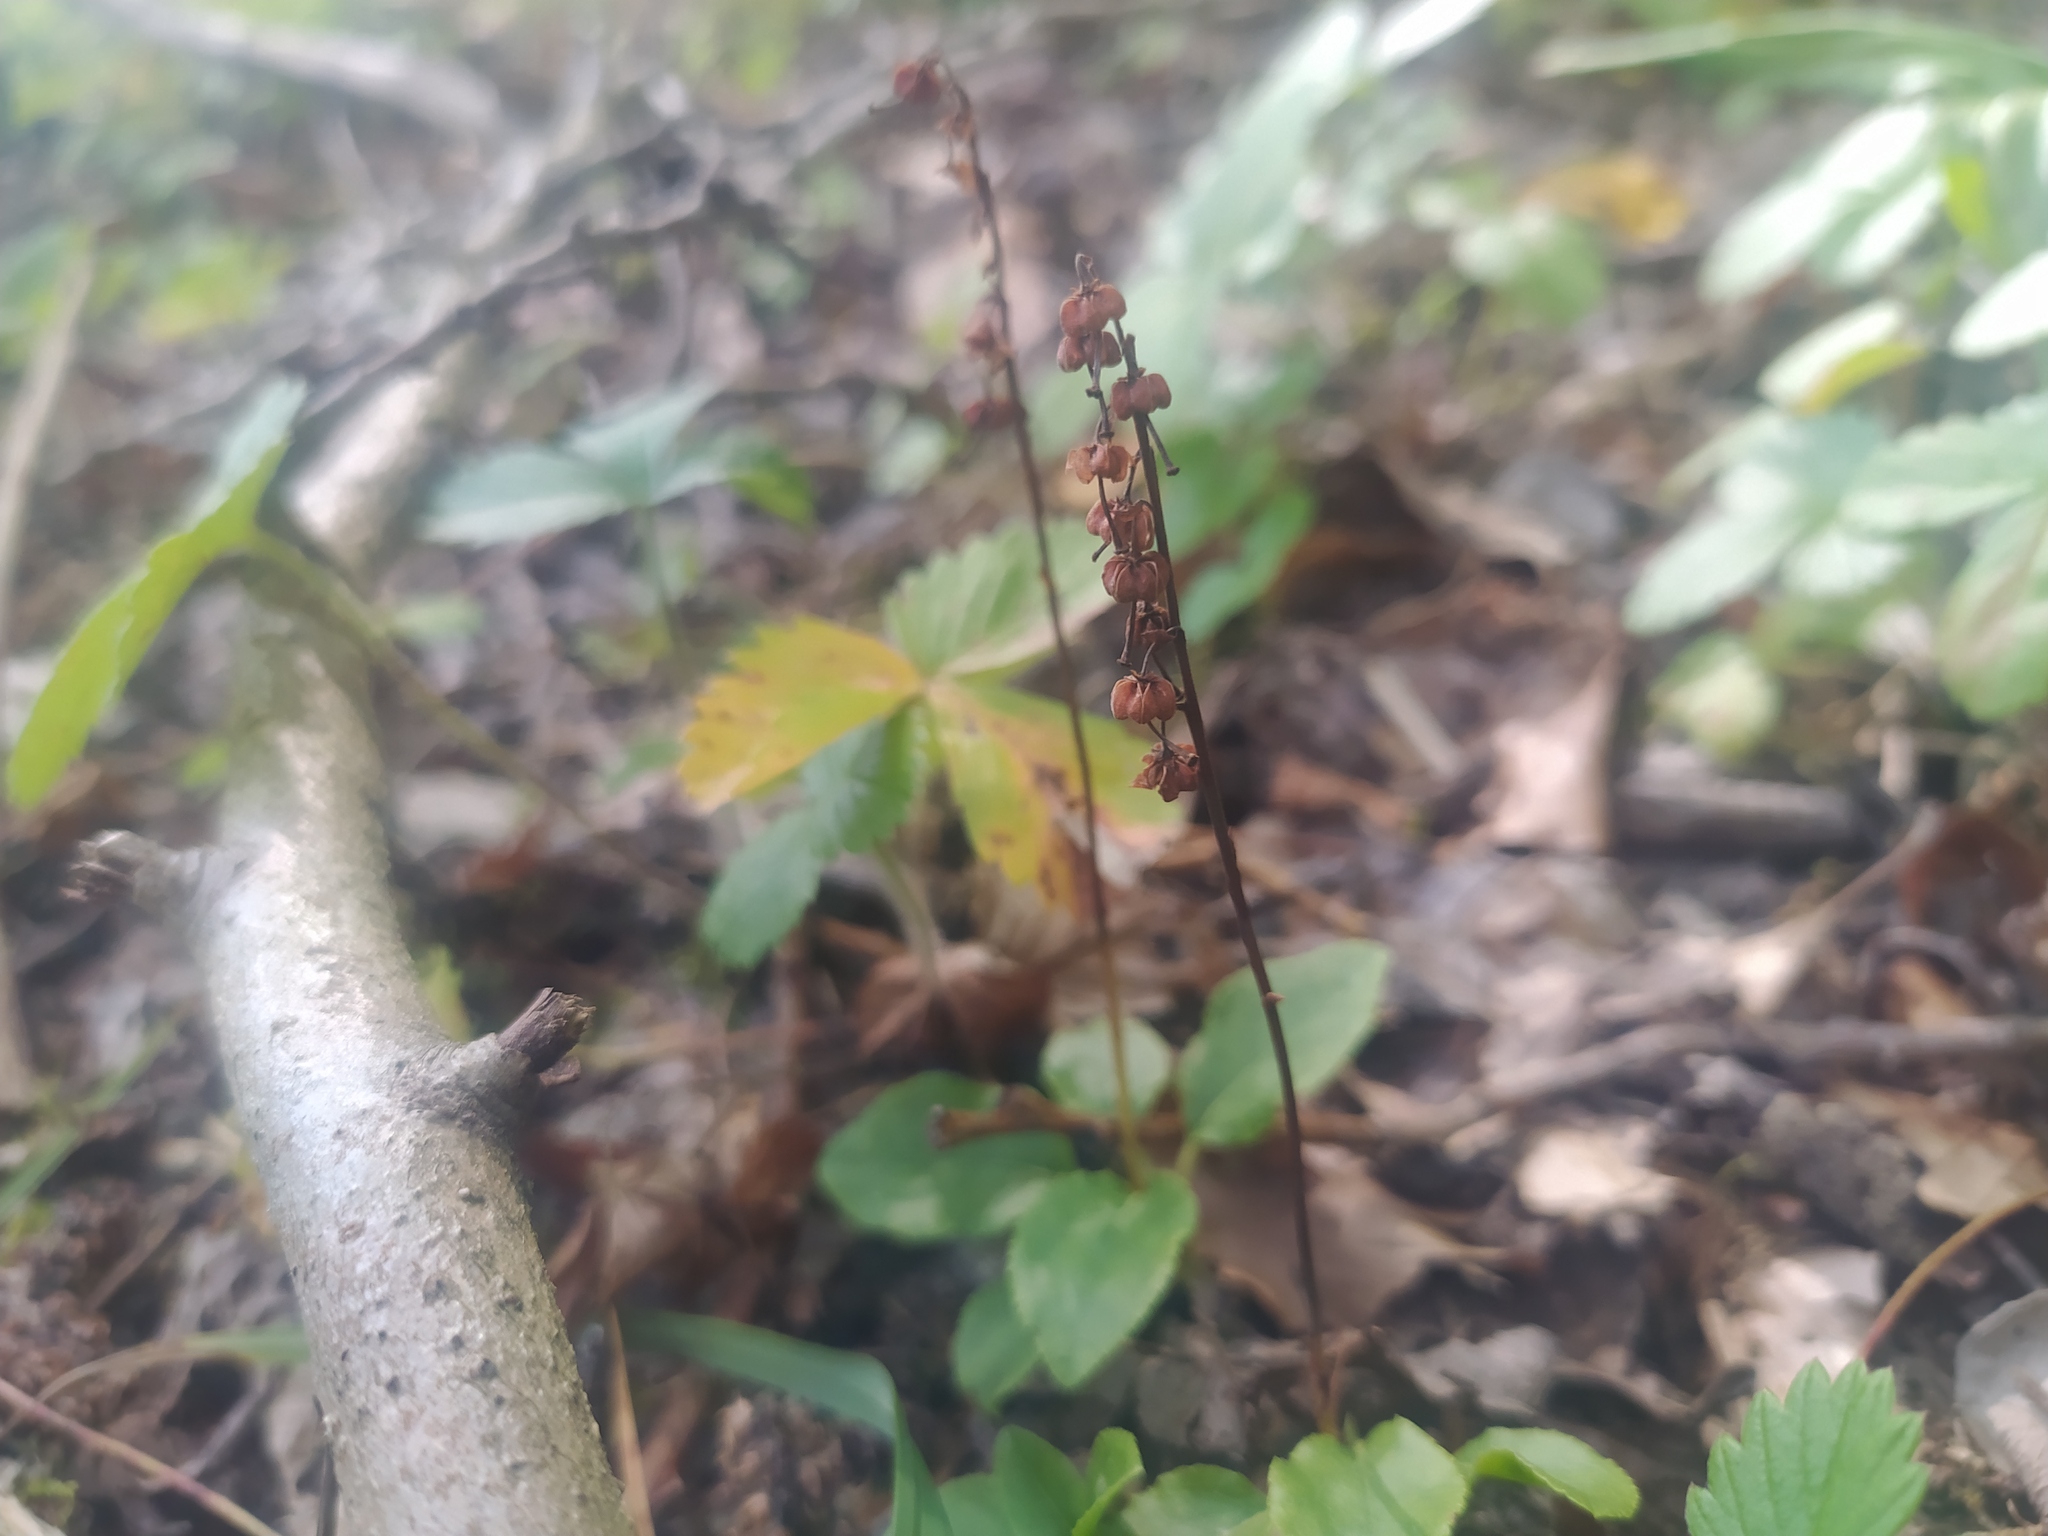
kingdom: Plantae
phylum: Tracheophyta
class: Magnoliopsida
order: Ericales
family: Ericaceae
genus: Orthilia
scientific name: Orthilia secunda
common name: One-sided orthilia
